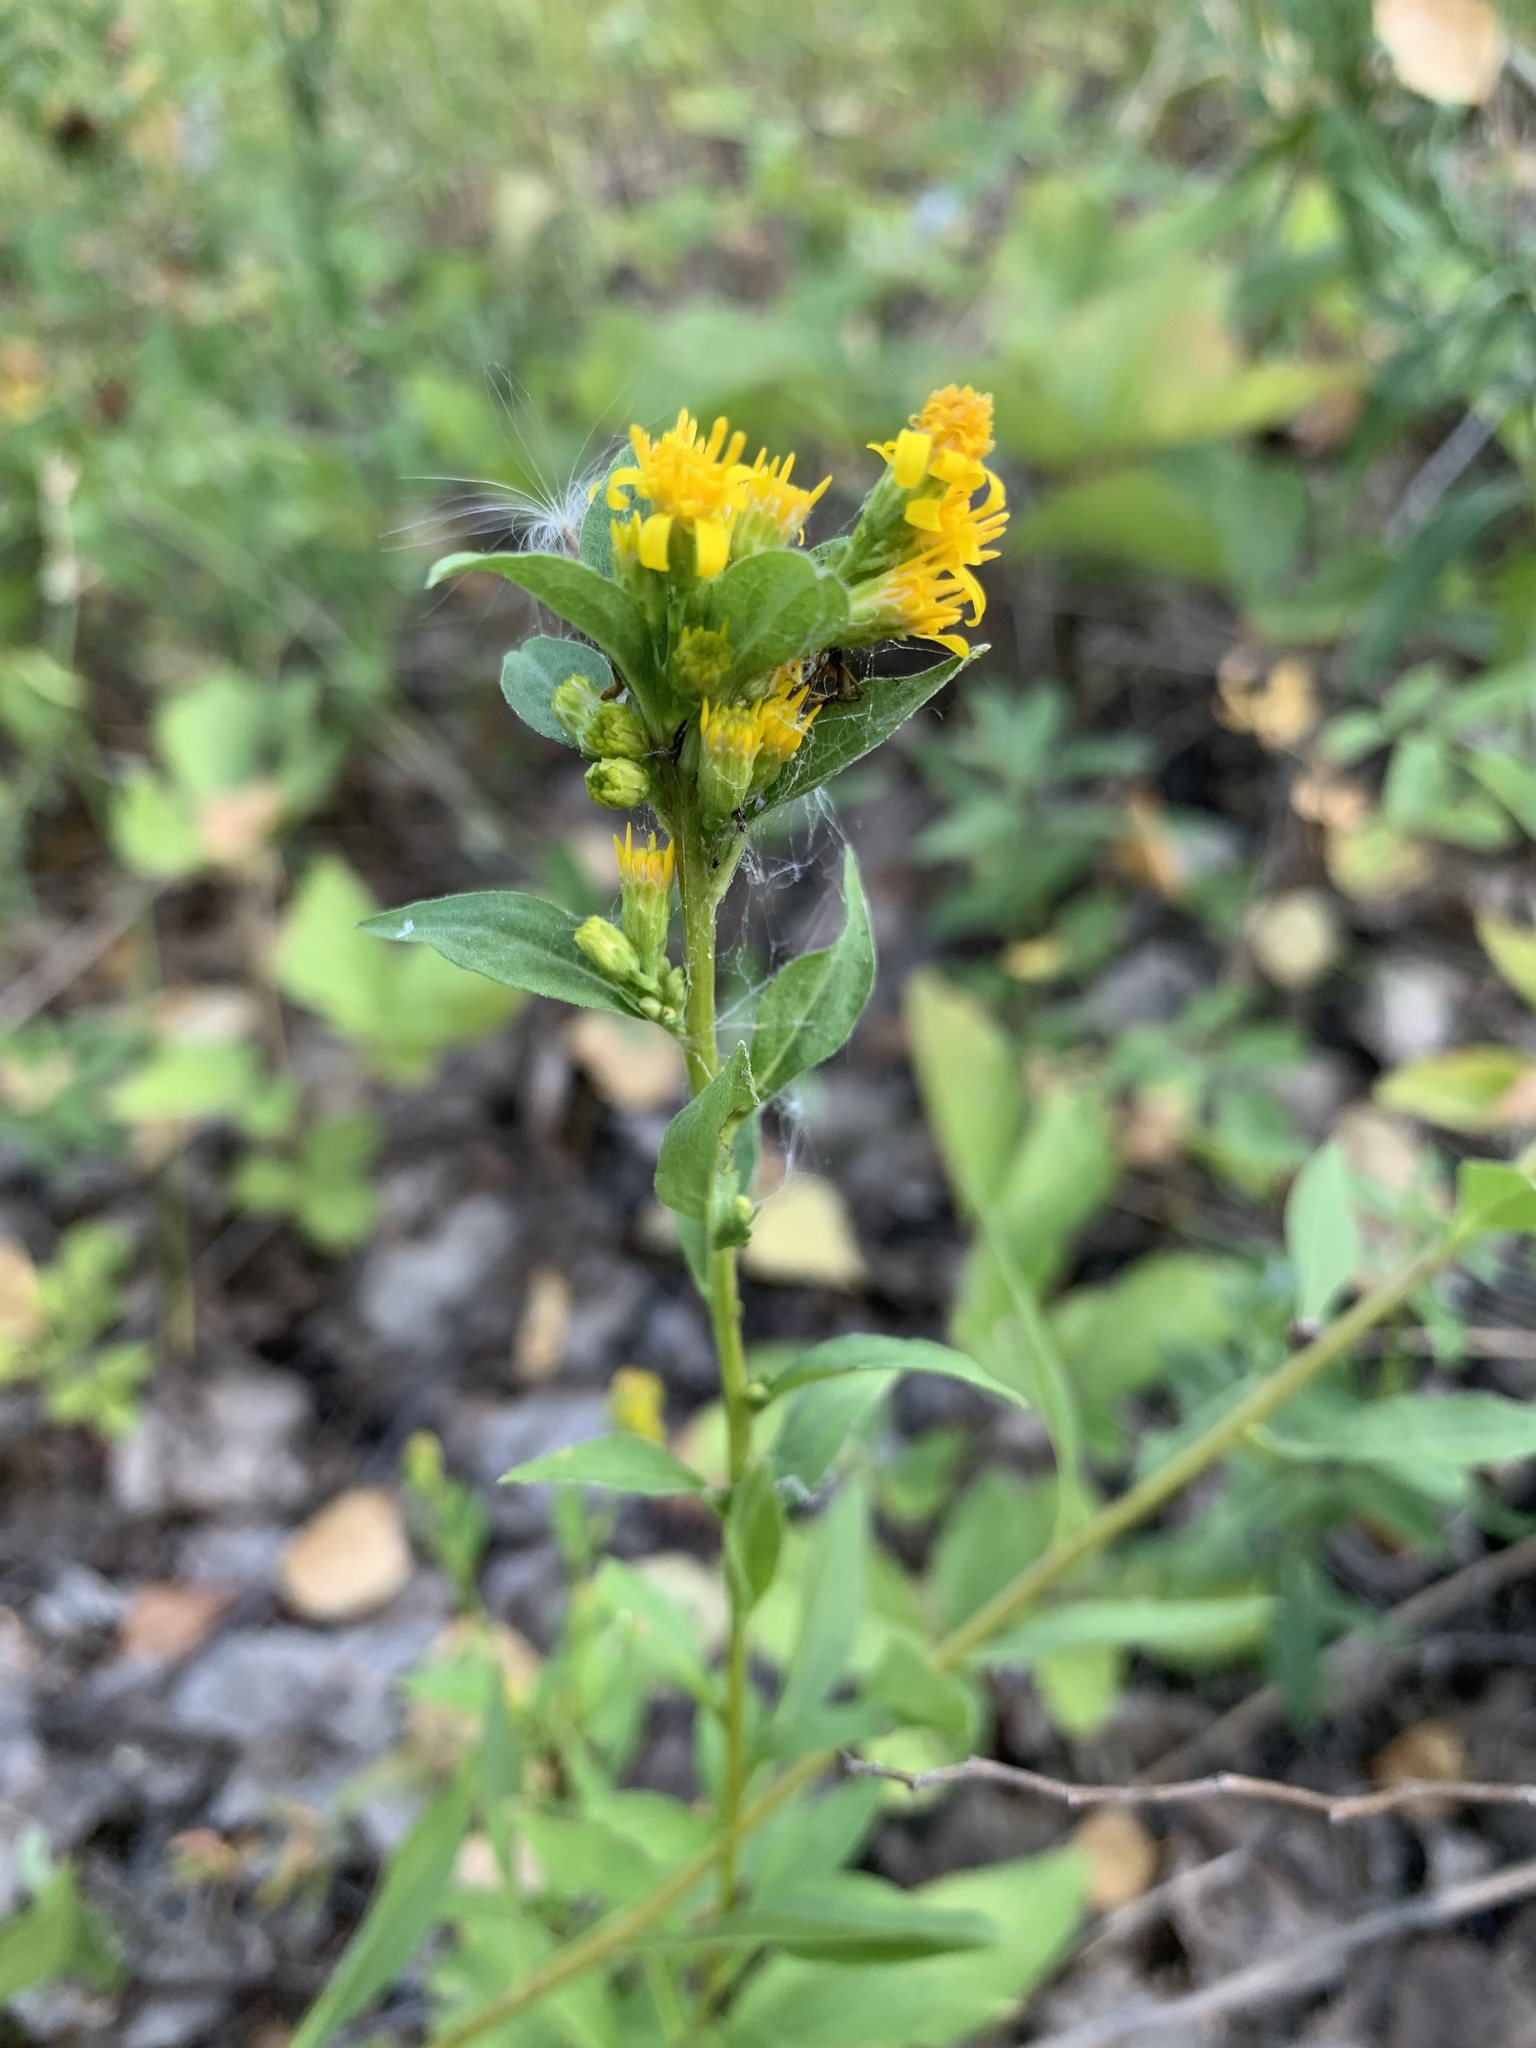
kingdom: Plantae
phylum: Tracheophyta
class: Magnoliopsida
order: Asterales
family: Asteraceae
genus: Solidago
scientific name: Solidago virgaurea
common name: Goldenrod
